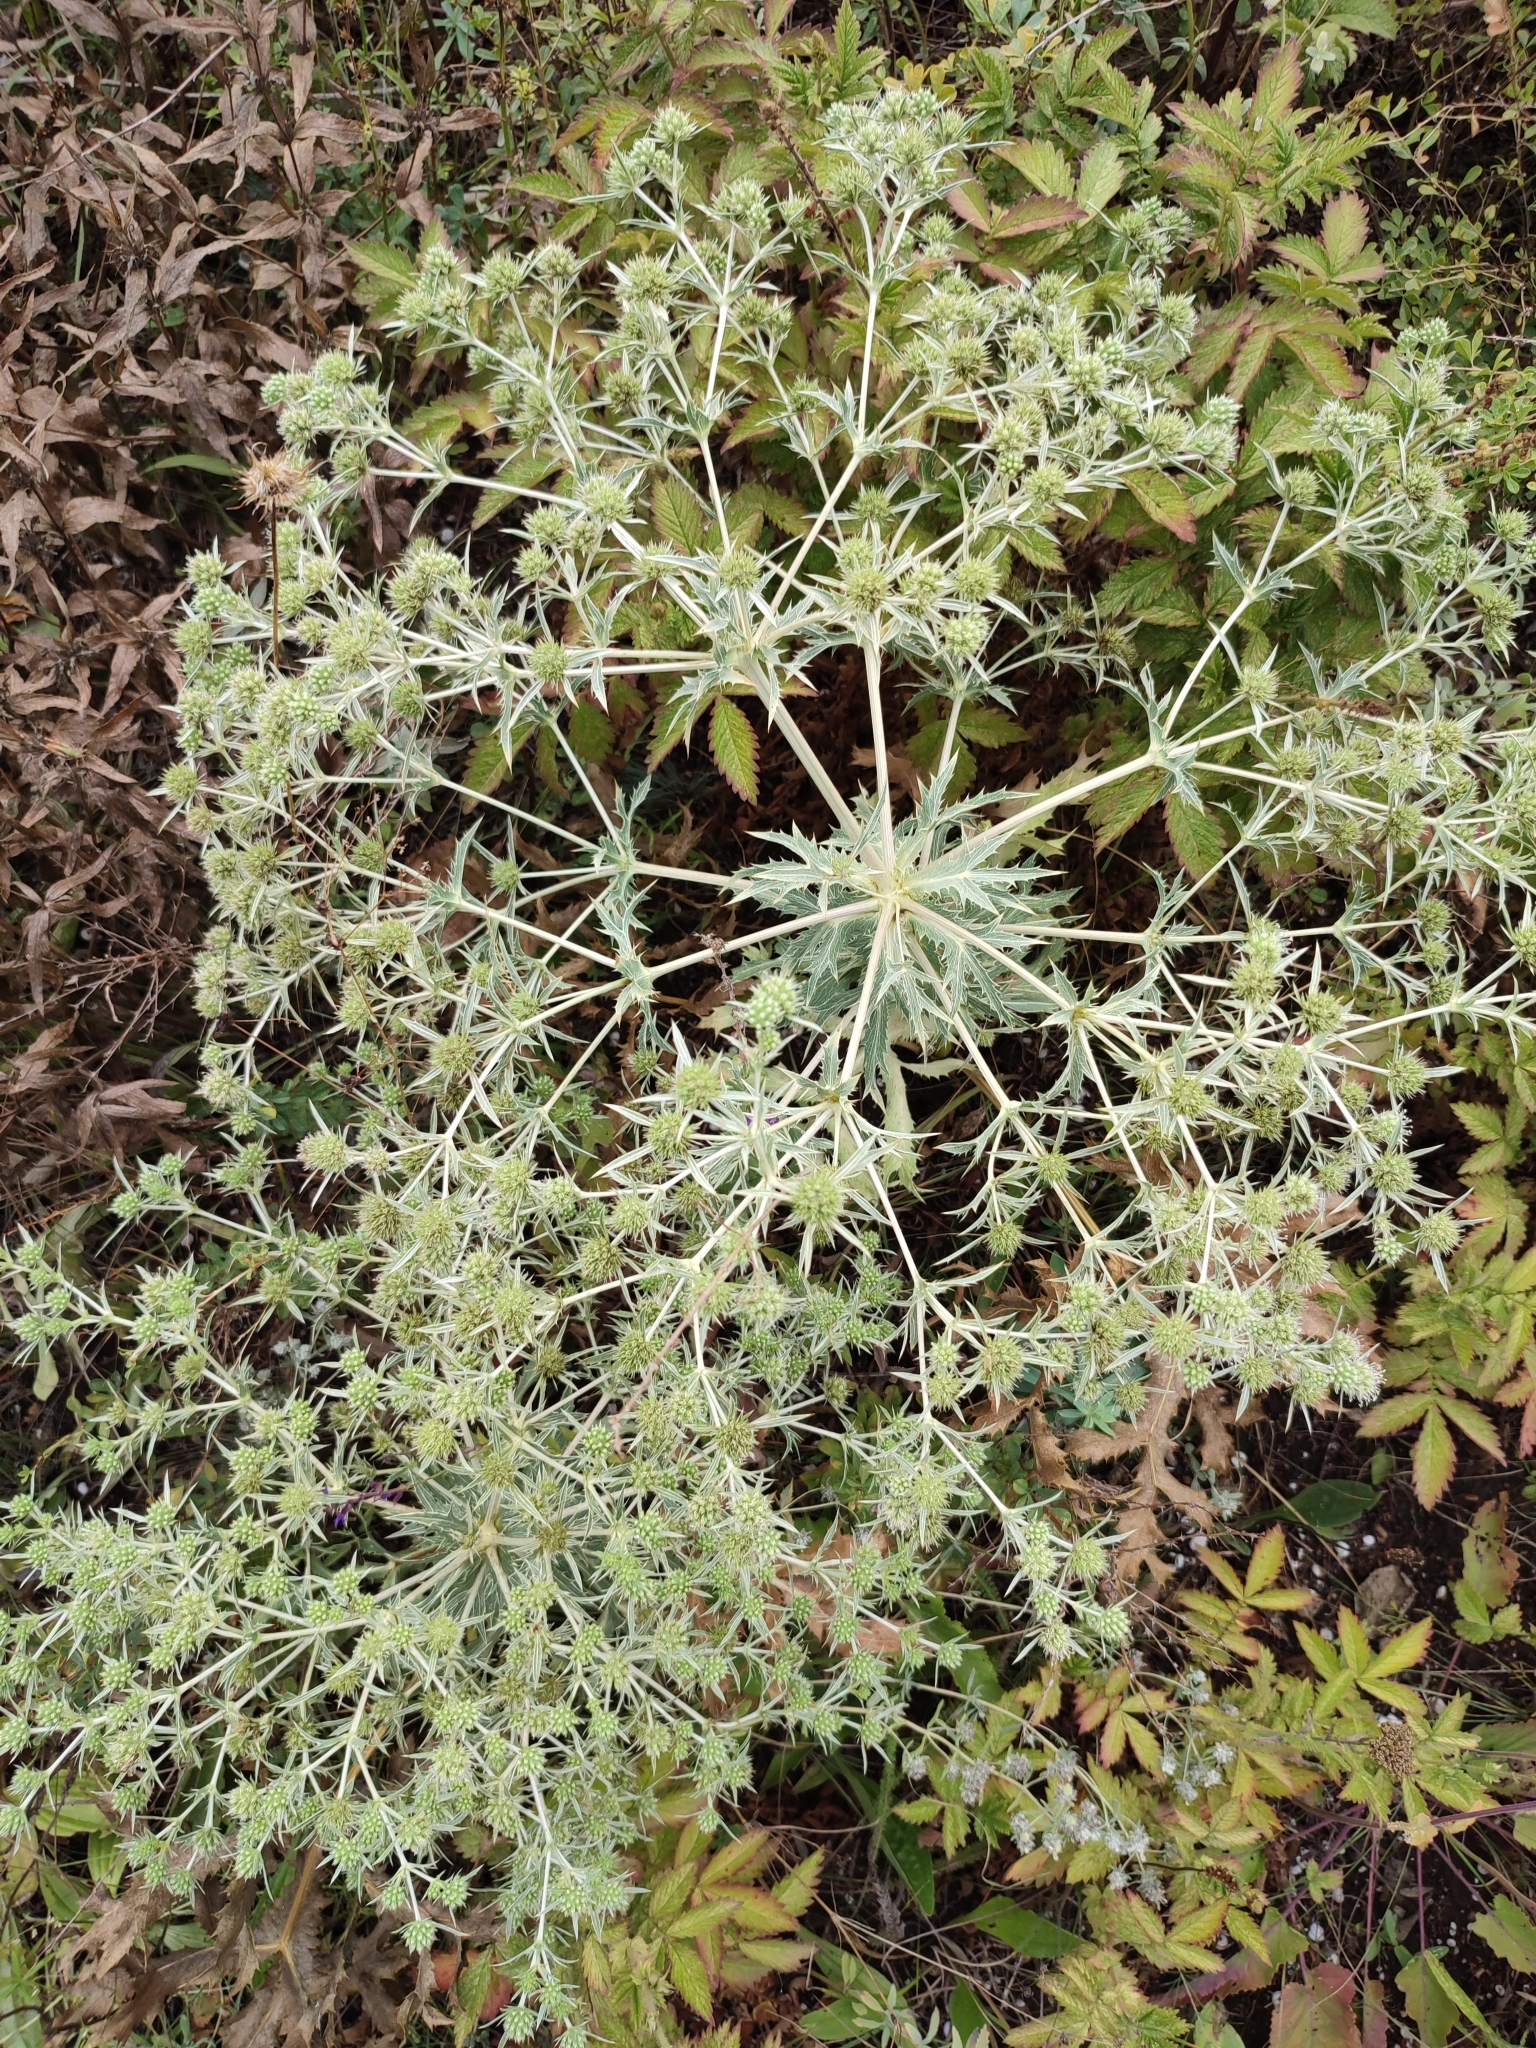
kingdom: Plantae
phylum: Tracheophyta
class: Magnoliopsida
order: Apiales
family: Apiaceae
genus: Eryngium
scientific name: Eryngium campestre
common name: Field eryngo
